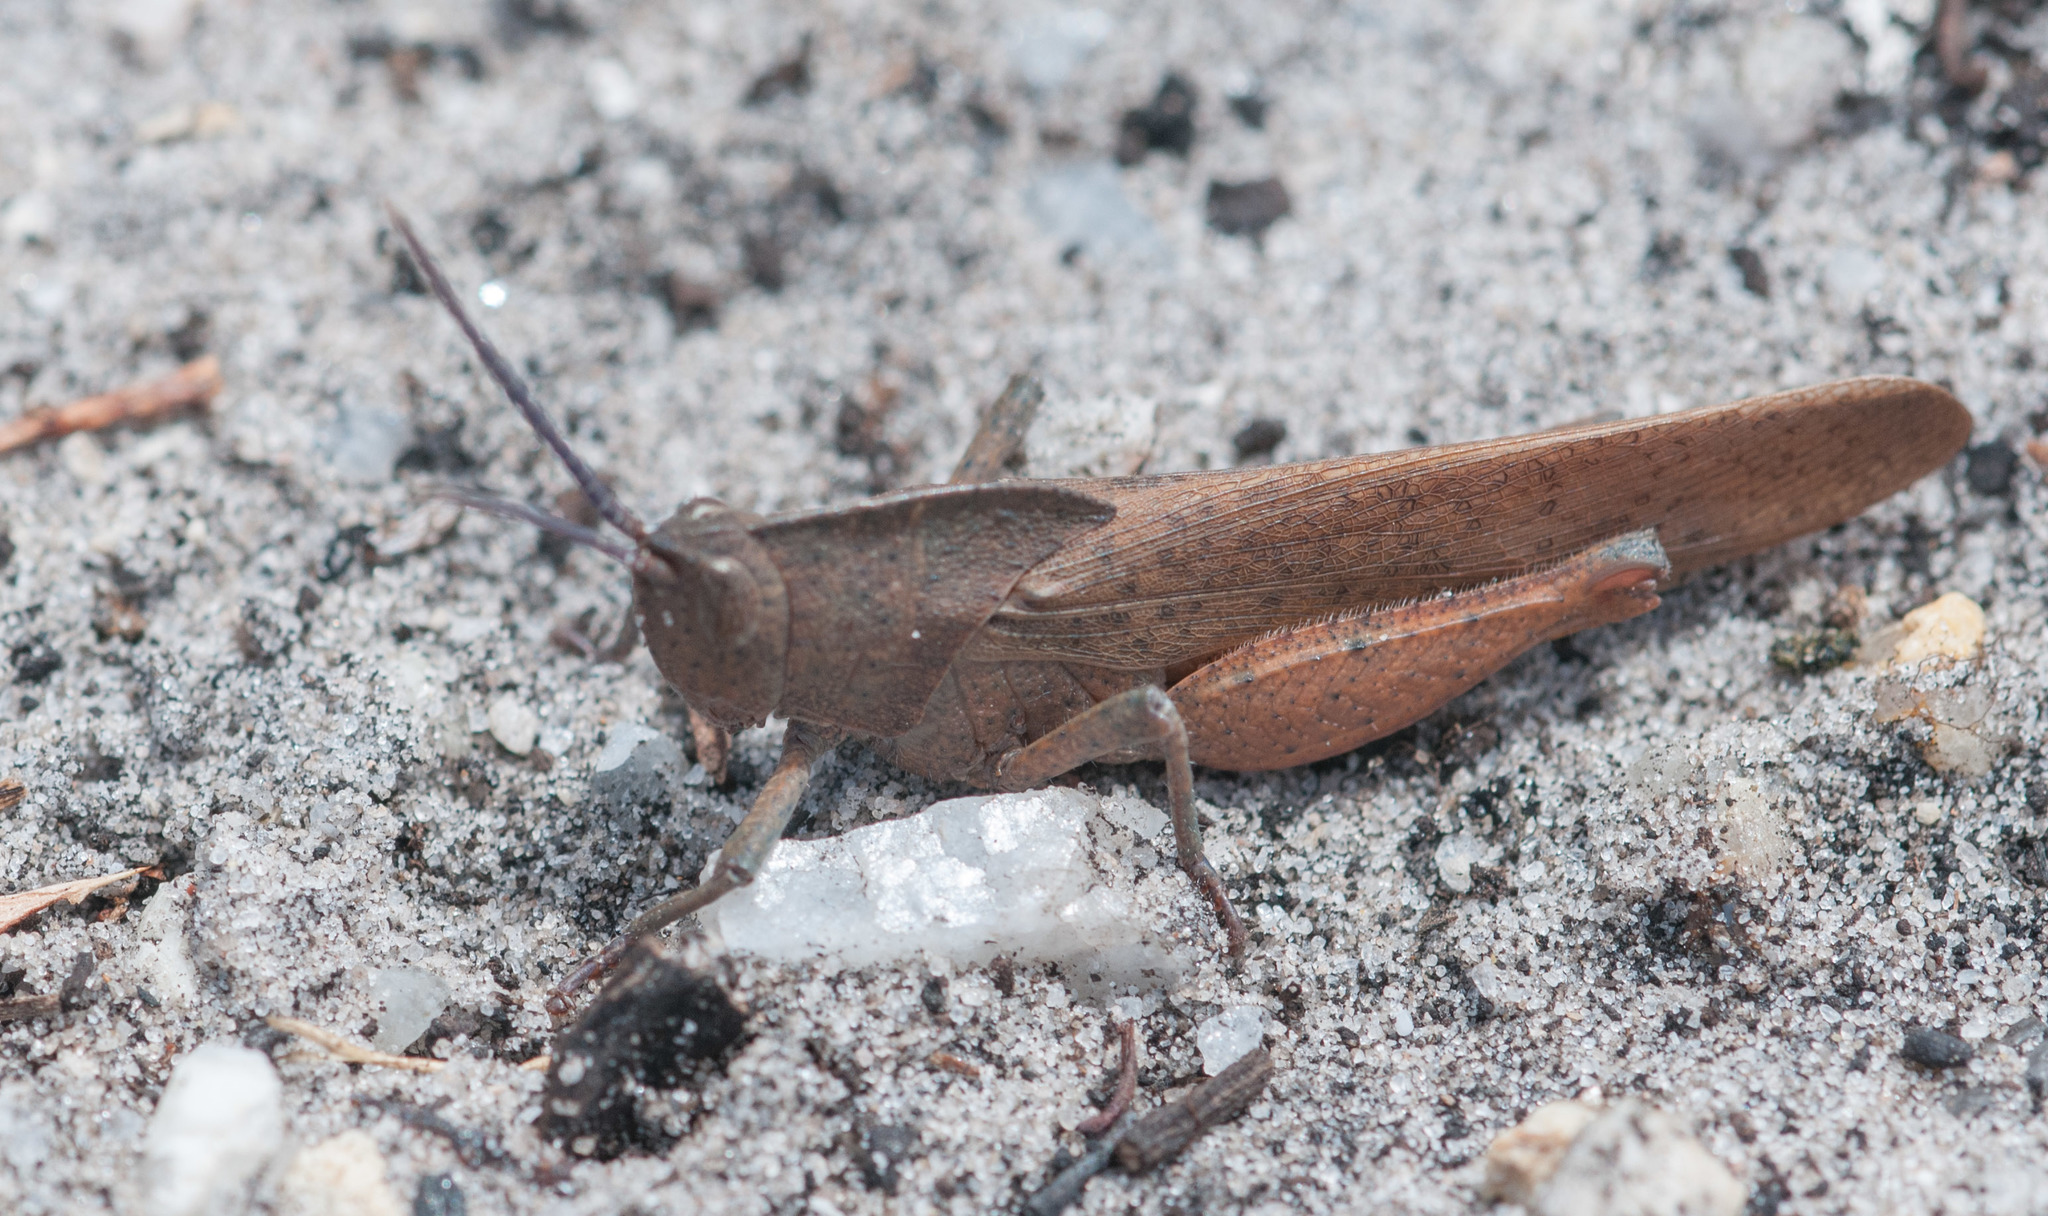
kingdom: Animalia
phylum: Arthropoda
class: Insecta
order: Orthoptera
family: Acrididae
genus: Goniaea
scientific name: Goniaea australasiae
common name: Gumleaf grasshopper
